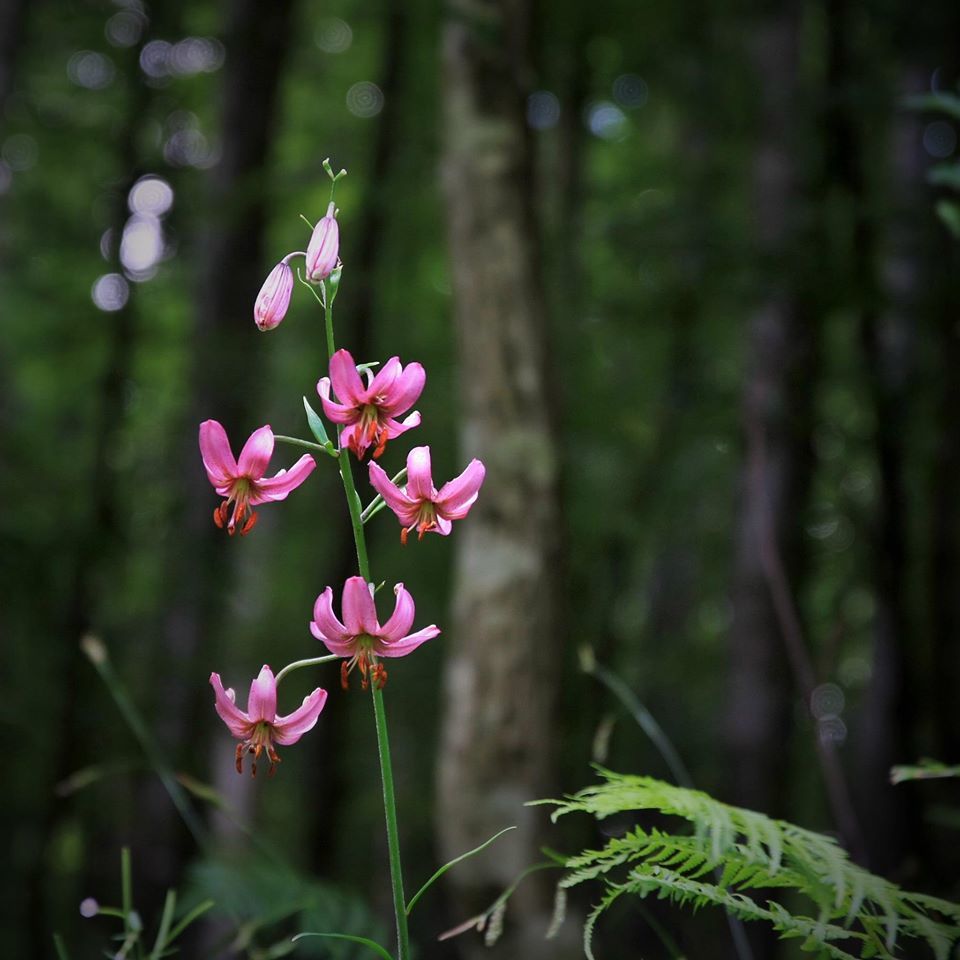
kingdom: Plantae
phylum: Tracheophyta
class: Liliopsida
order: Liliales
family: Liliaceae
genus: Lilium
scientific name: Lilium martagon
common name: Martagon lily
